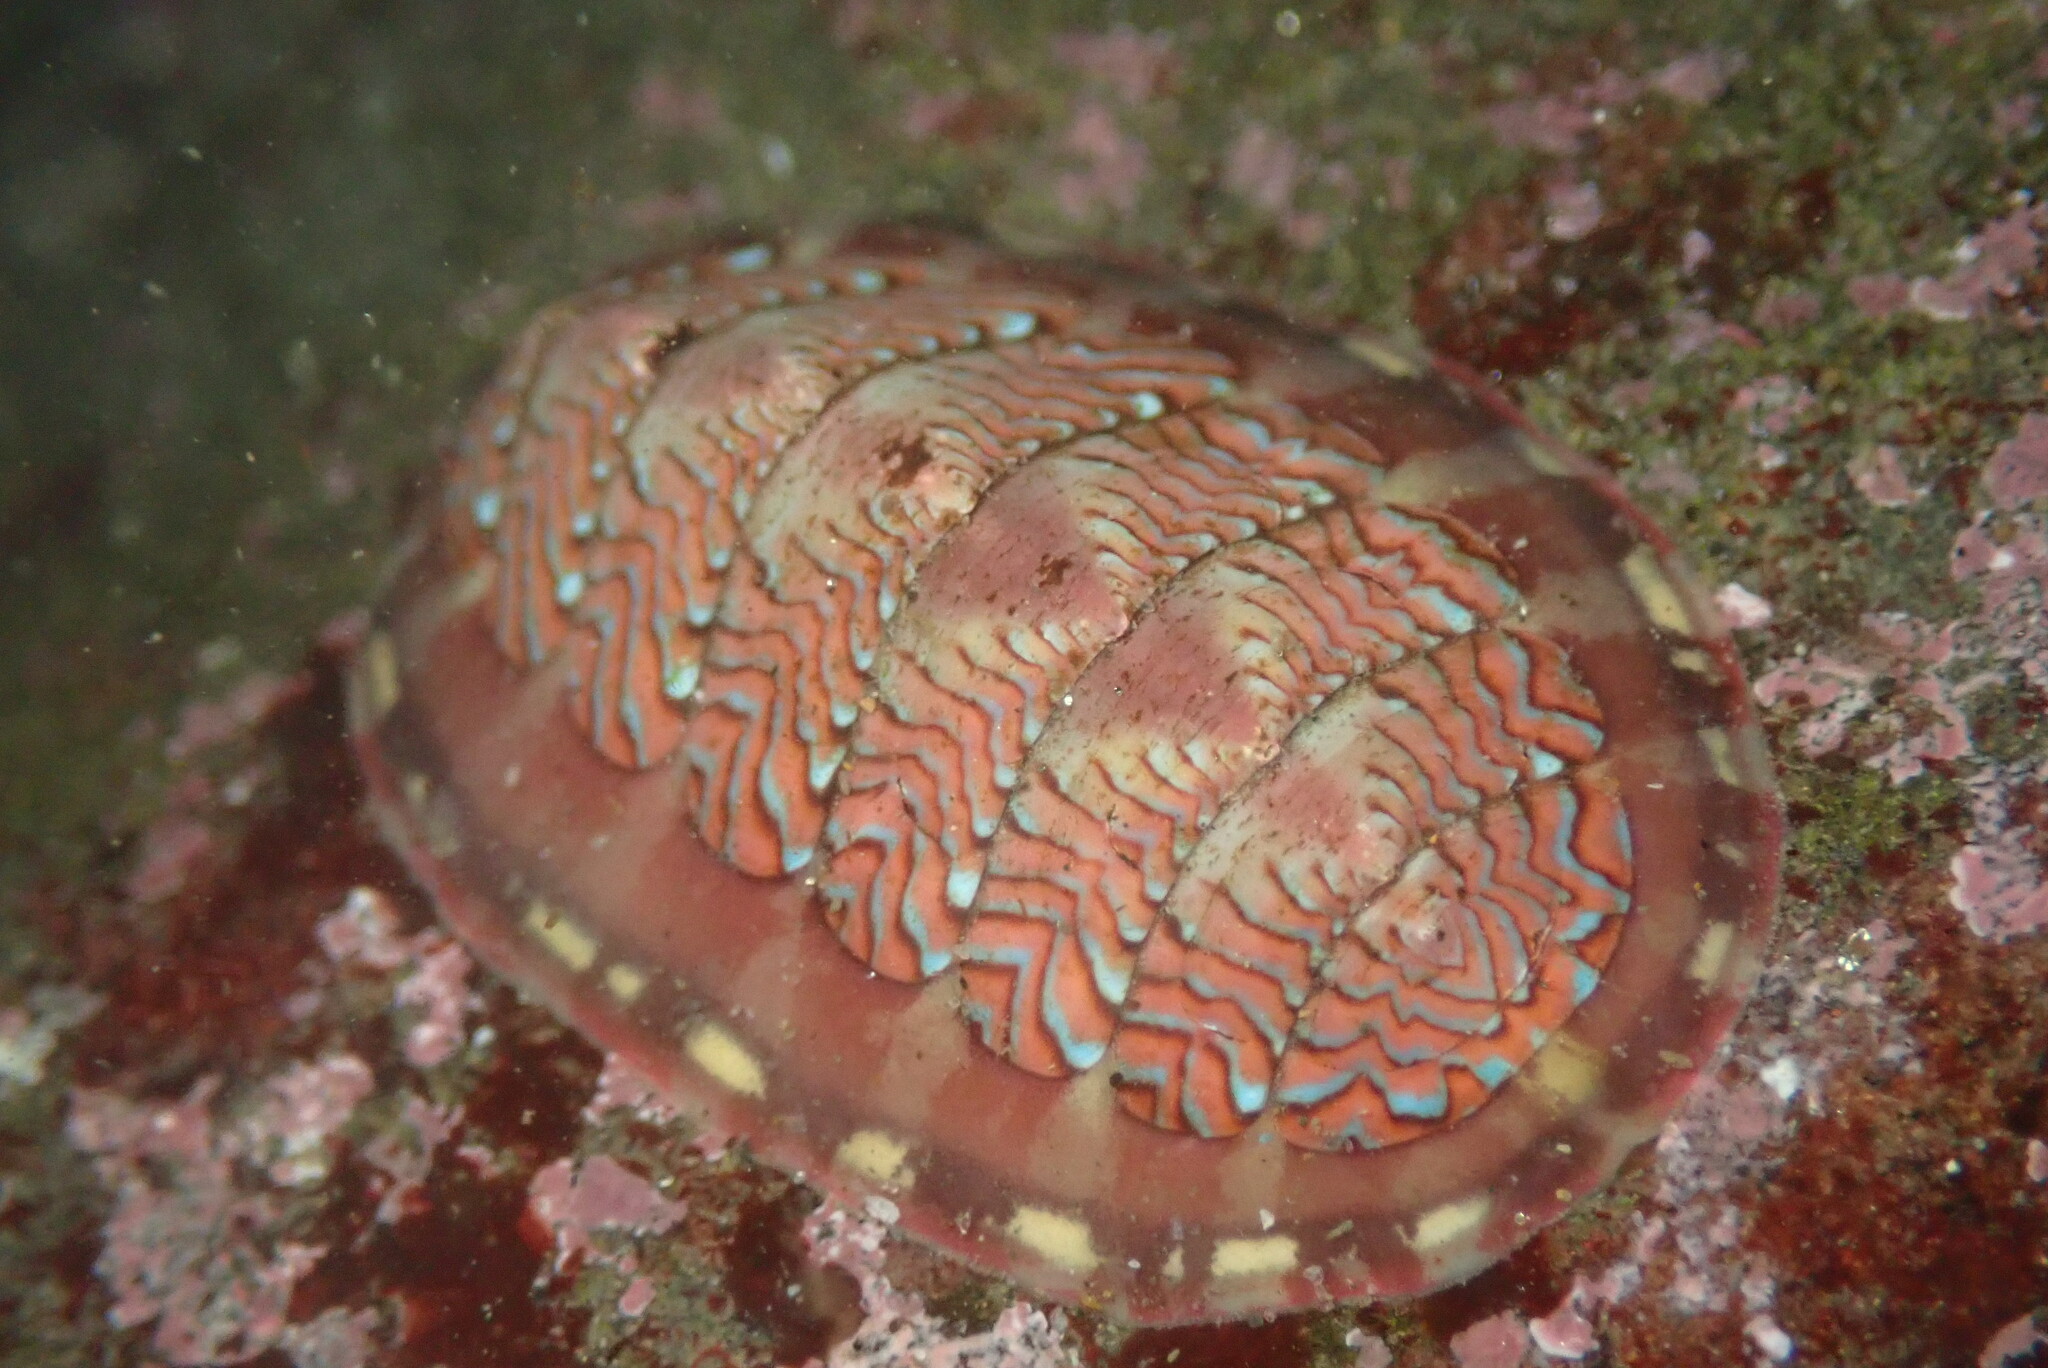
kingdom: Animalia
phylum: Mollusca
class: Polyplacophora
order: Chitonida
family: Tonicellidae
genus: Tonicella
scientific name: Tonicella lokii
